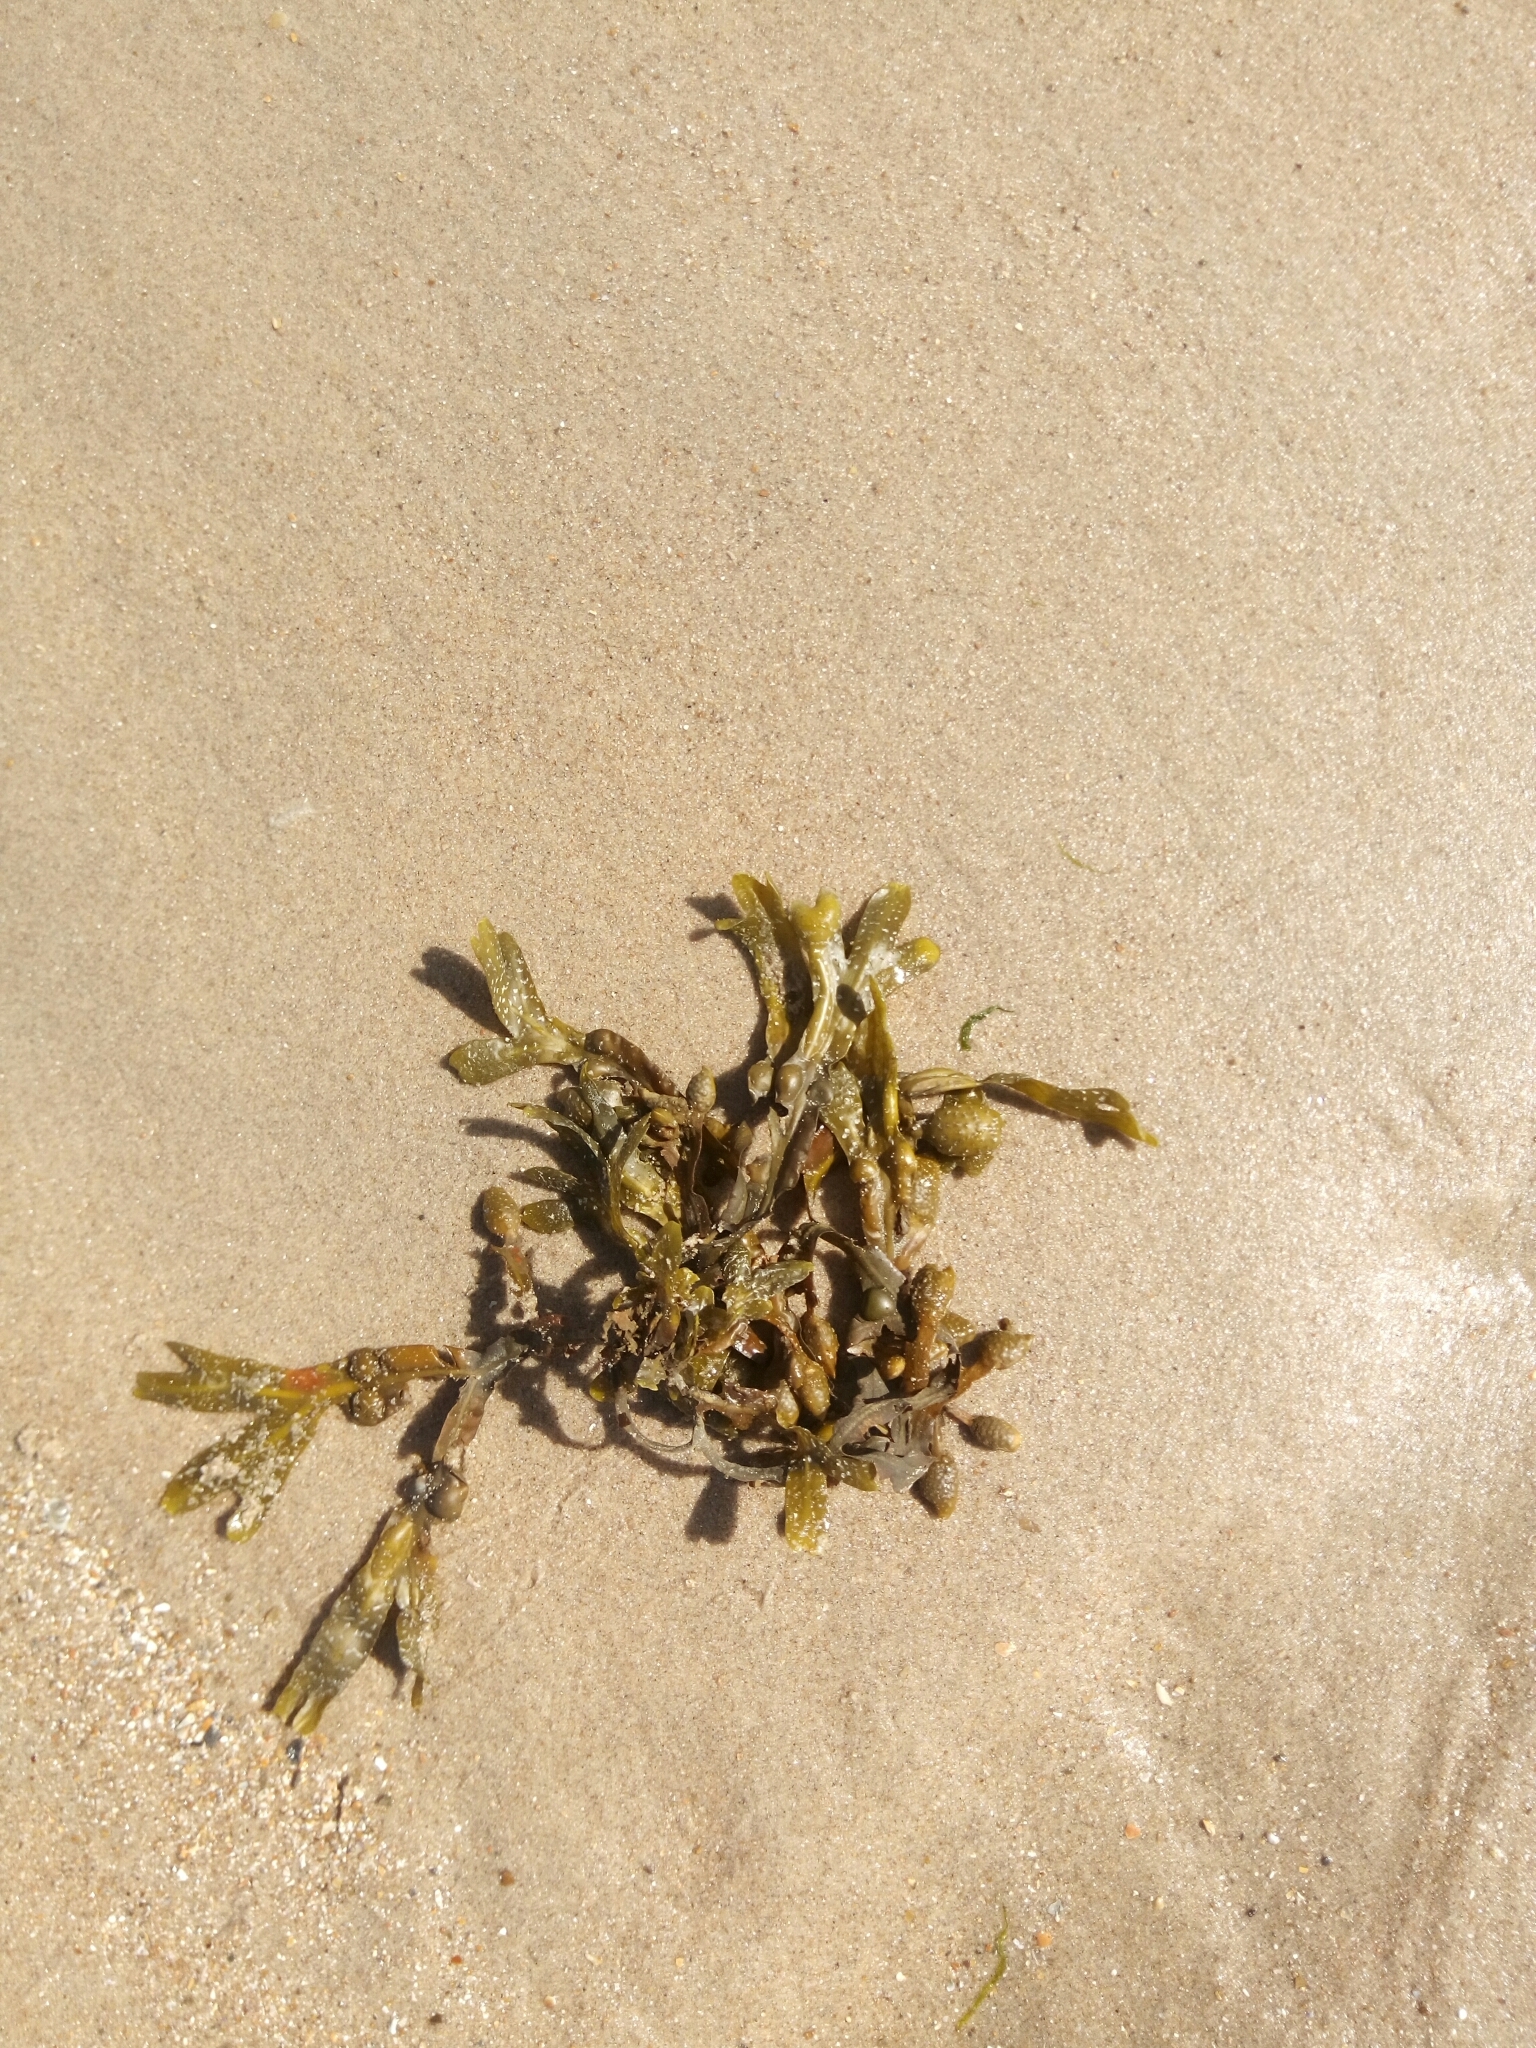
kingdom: Chromista
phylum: Ochrophyta
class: Phaeophyceae
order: Fucales
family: Fucaceae
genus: Fucus
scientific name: Fucus vesiculosus
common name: Bladder wrack
